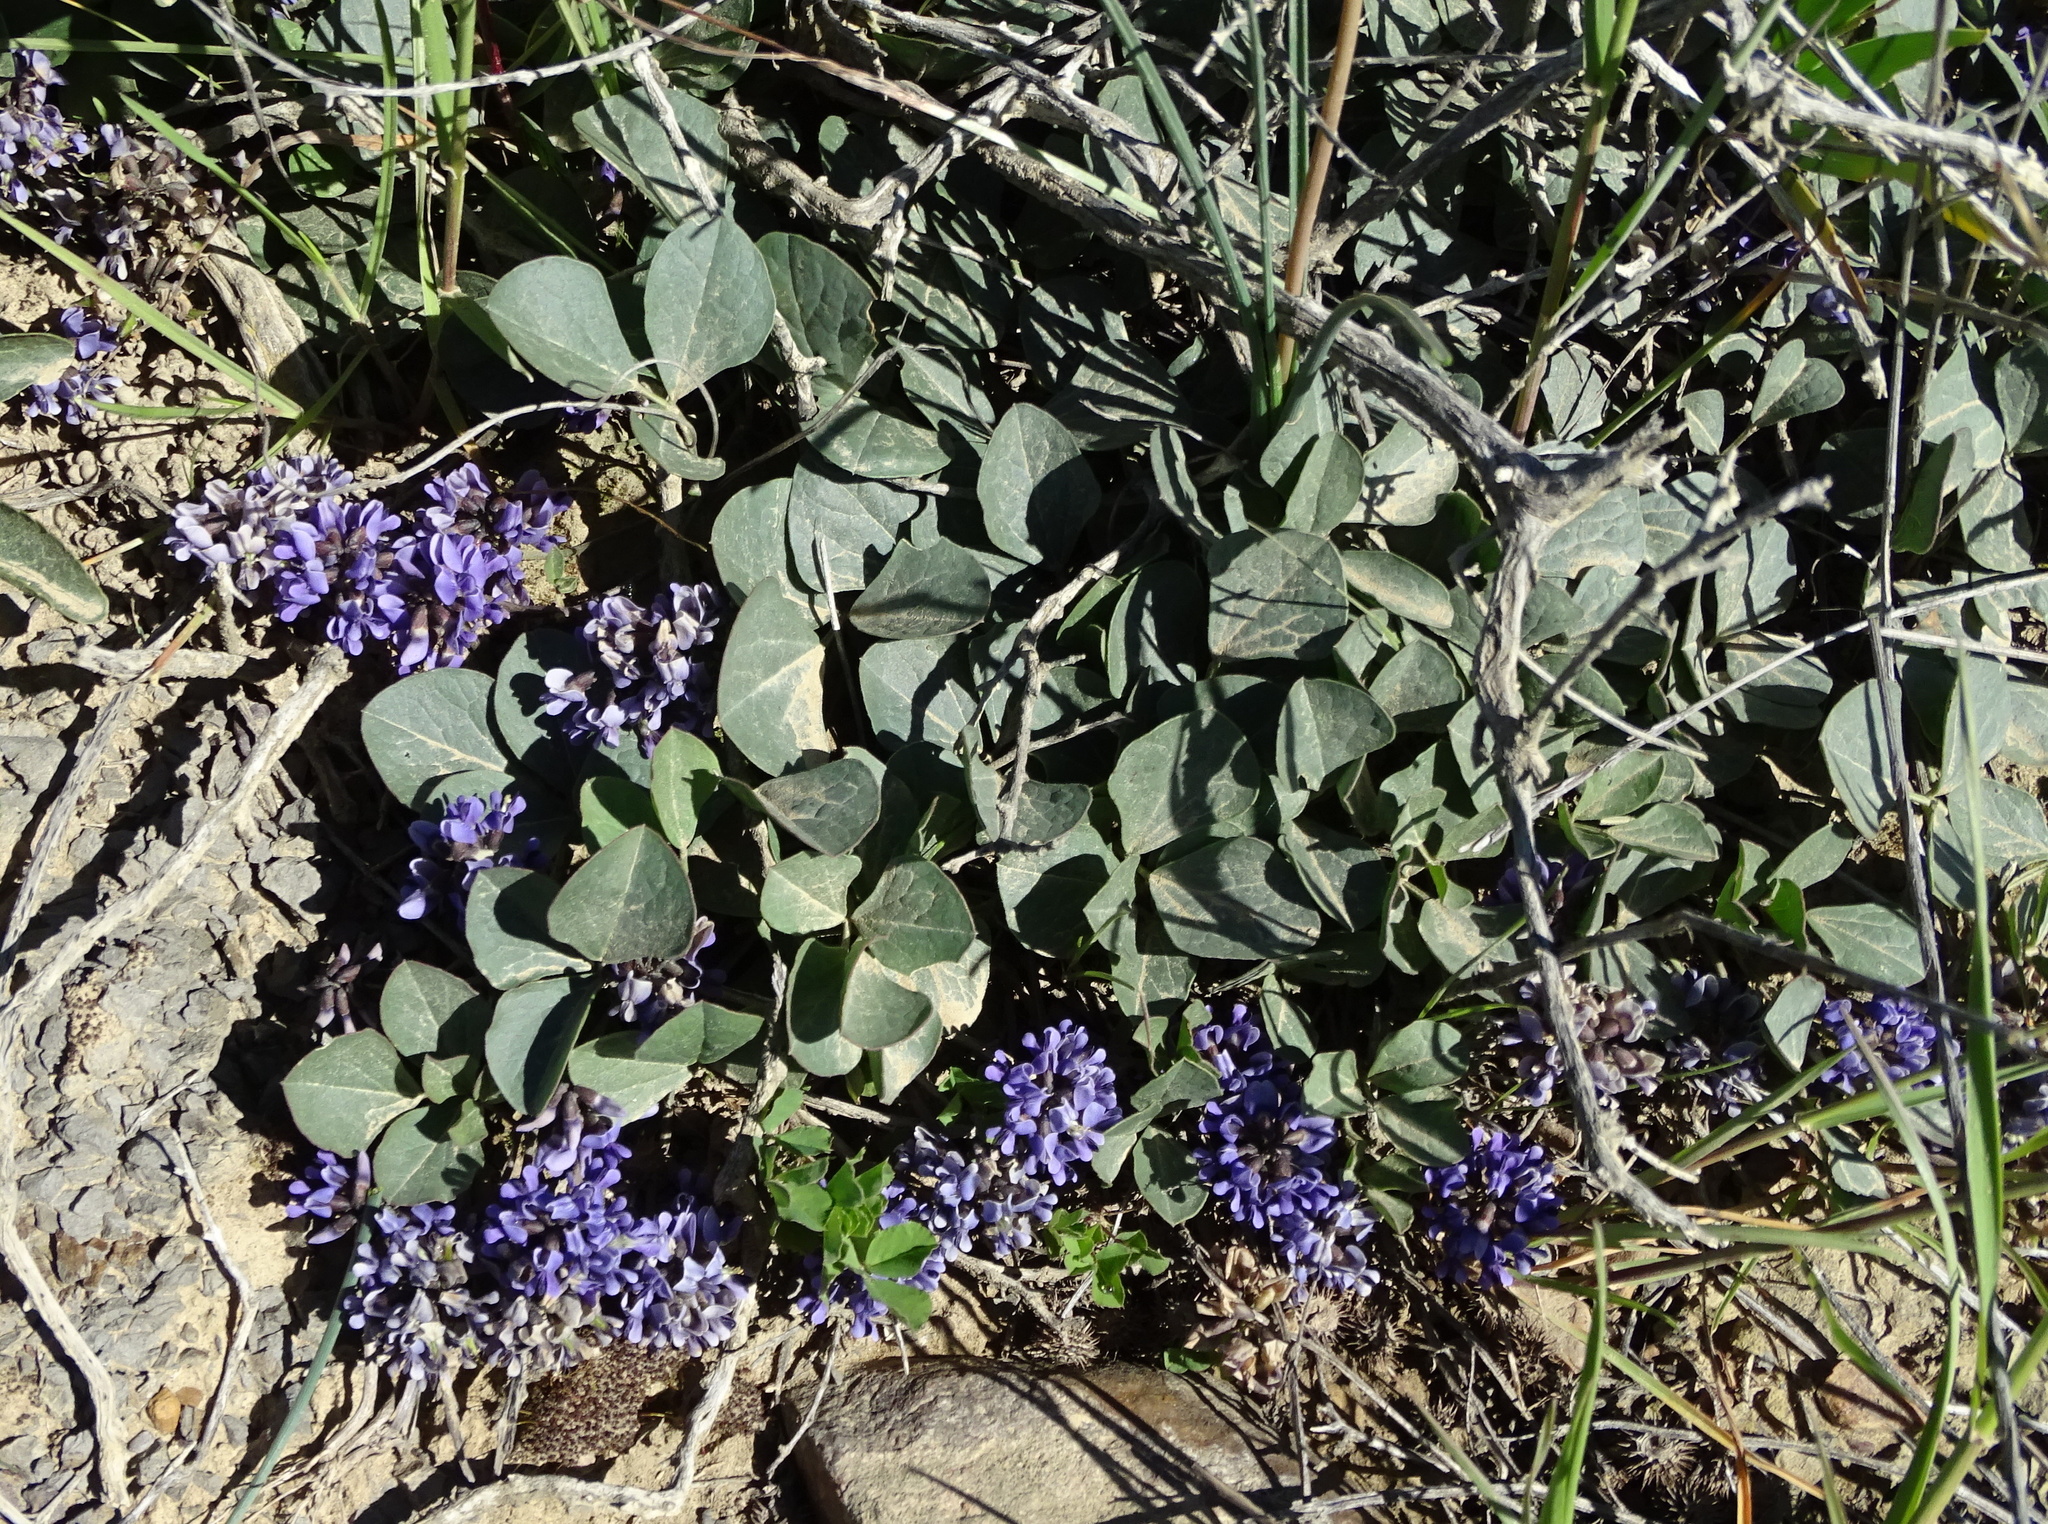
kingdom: Plantae
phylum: Tracheophyta
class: Magnoliopsida
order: Fabales
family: Fabaceae
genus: Dolichos
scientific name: Dolichos decumbens
